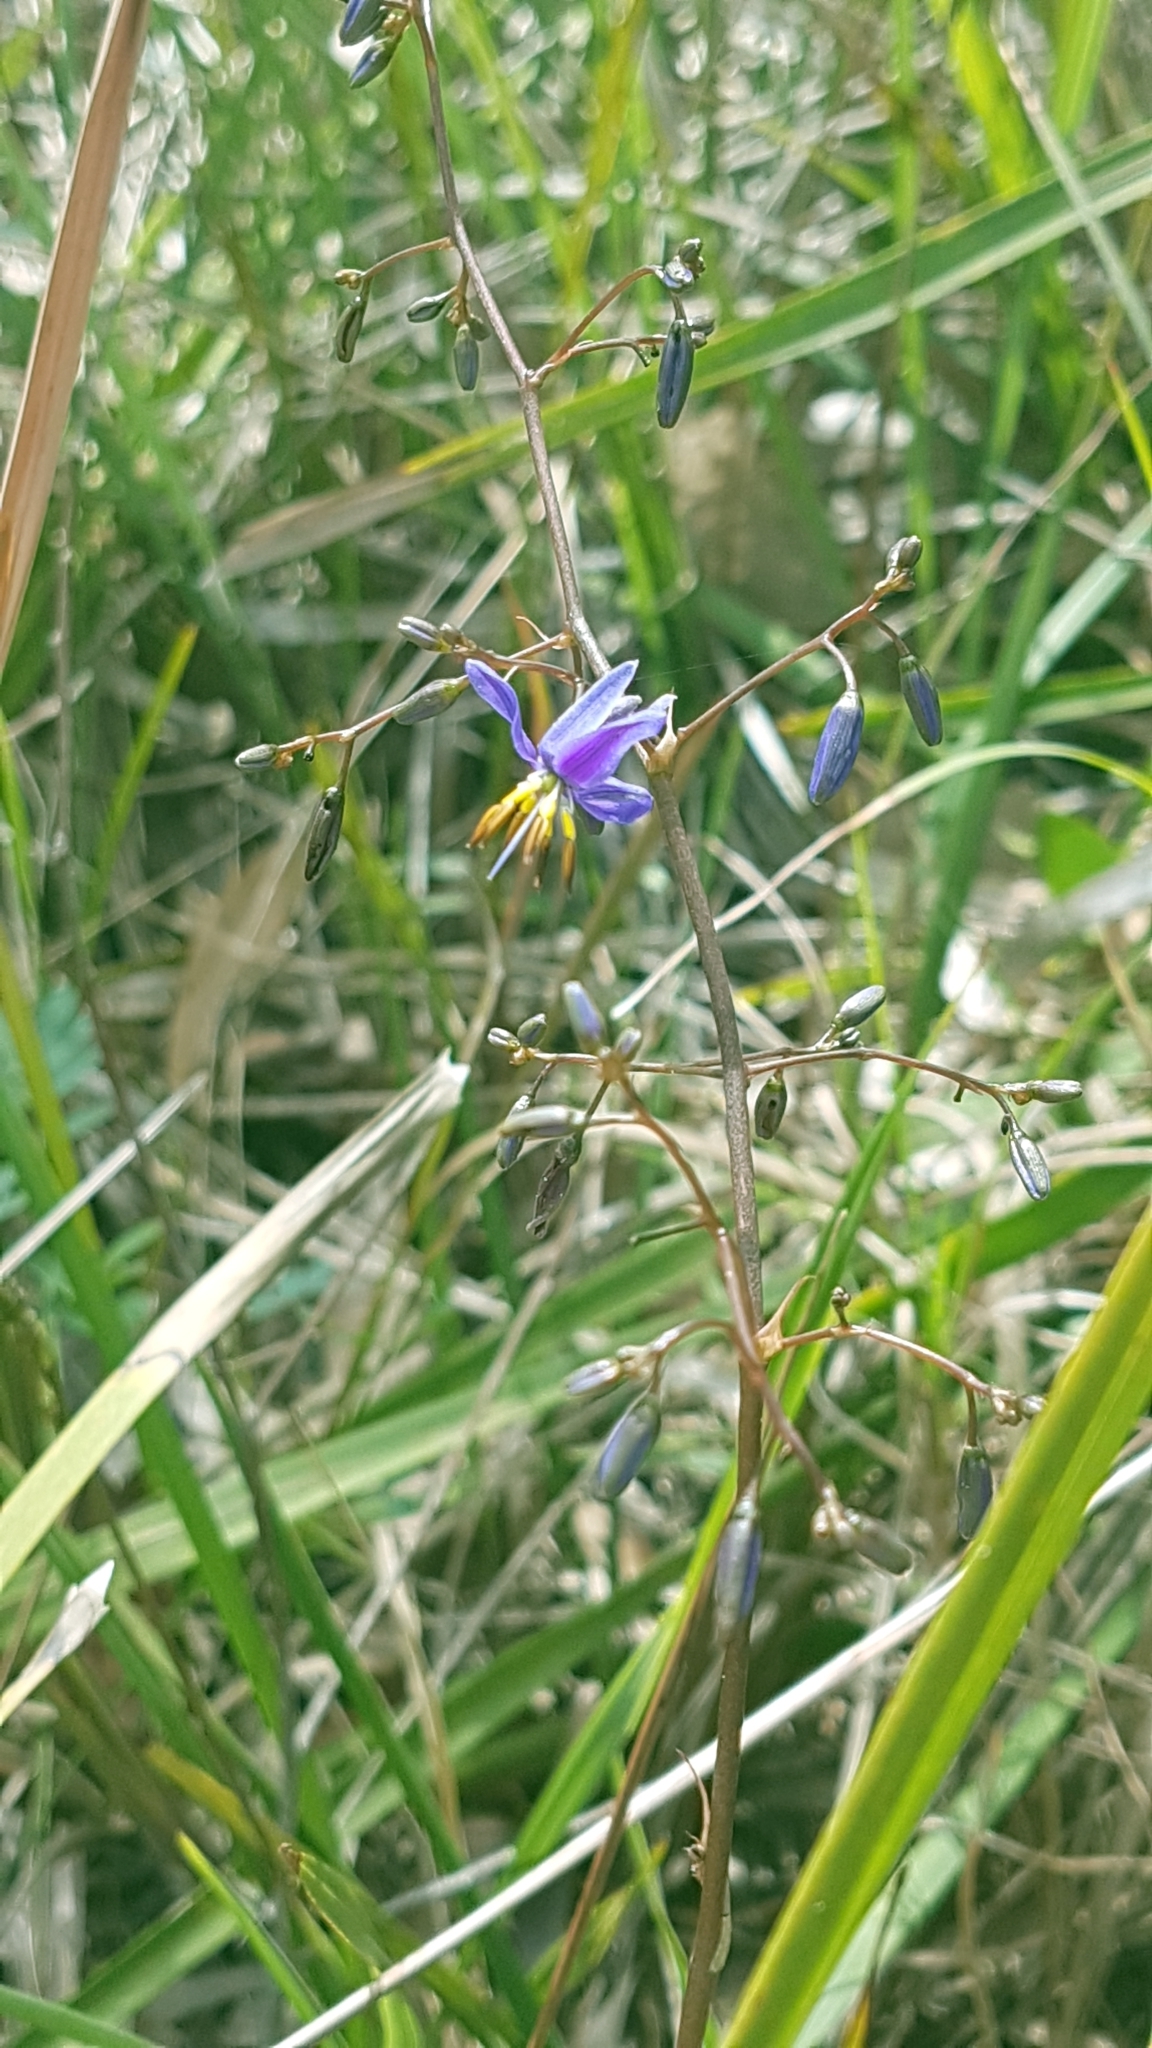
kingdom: Plantae
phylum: Tracheophyta
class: Liliopsida
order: Asparagales
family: Asphodelaceae
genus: Dianella
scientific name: Dianella revoluta
